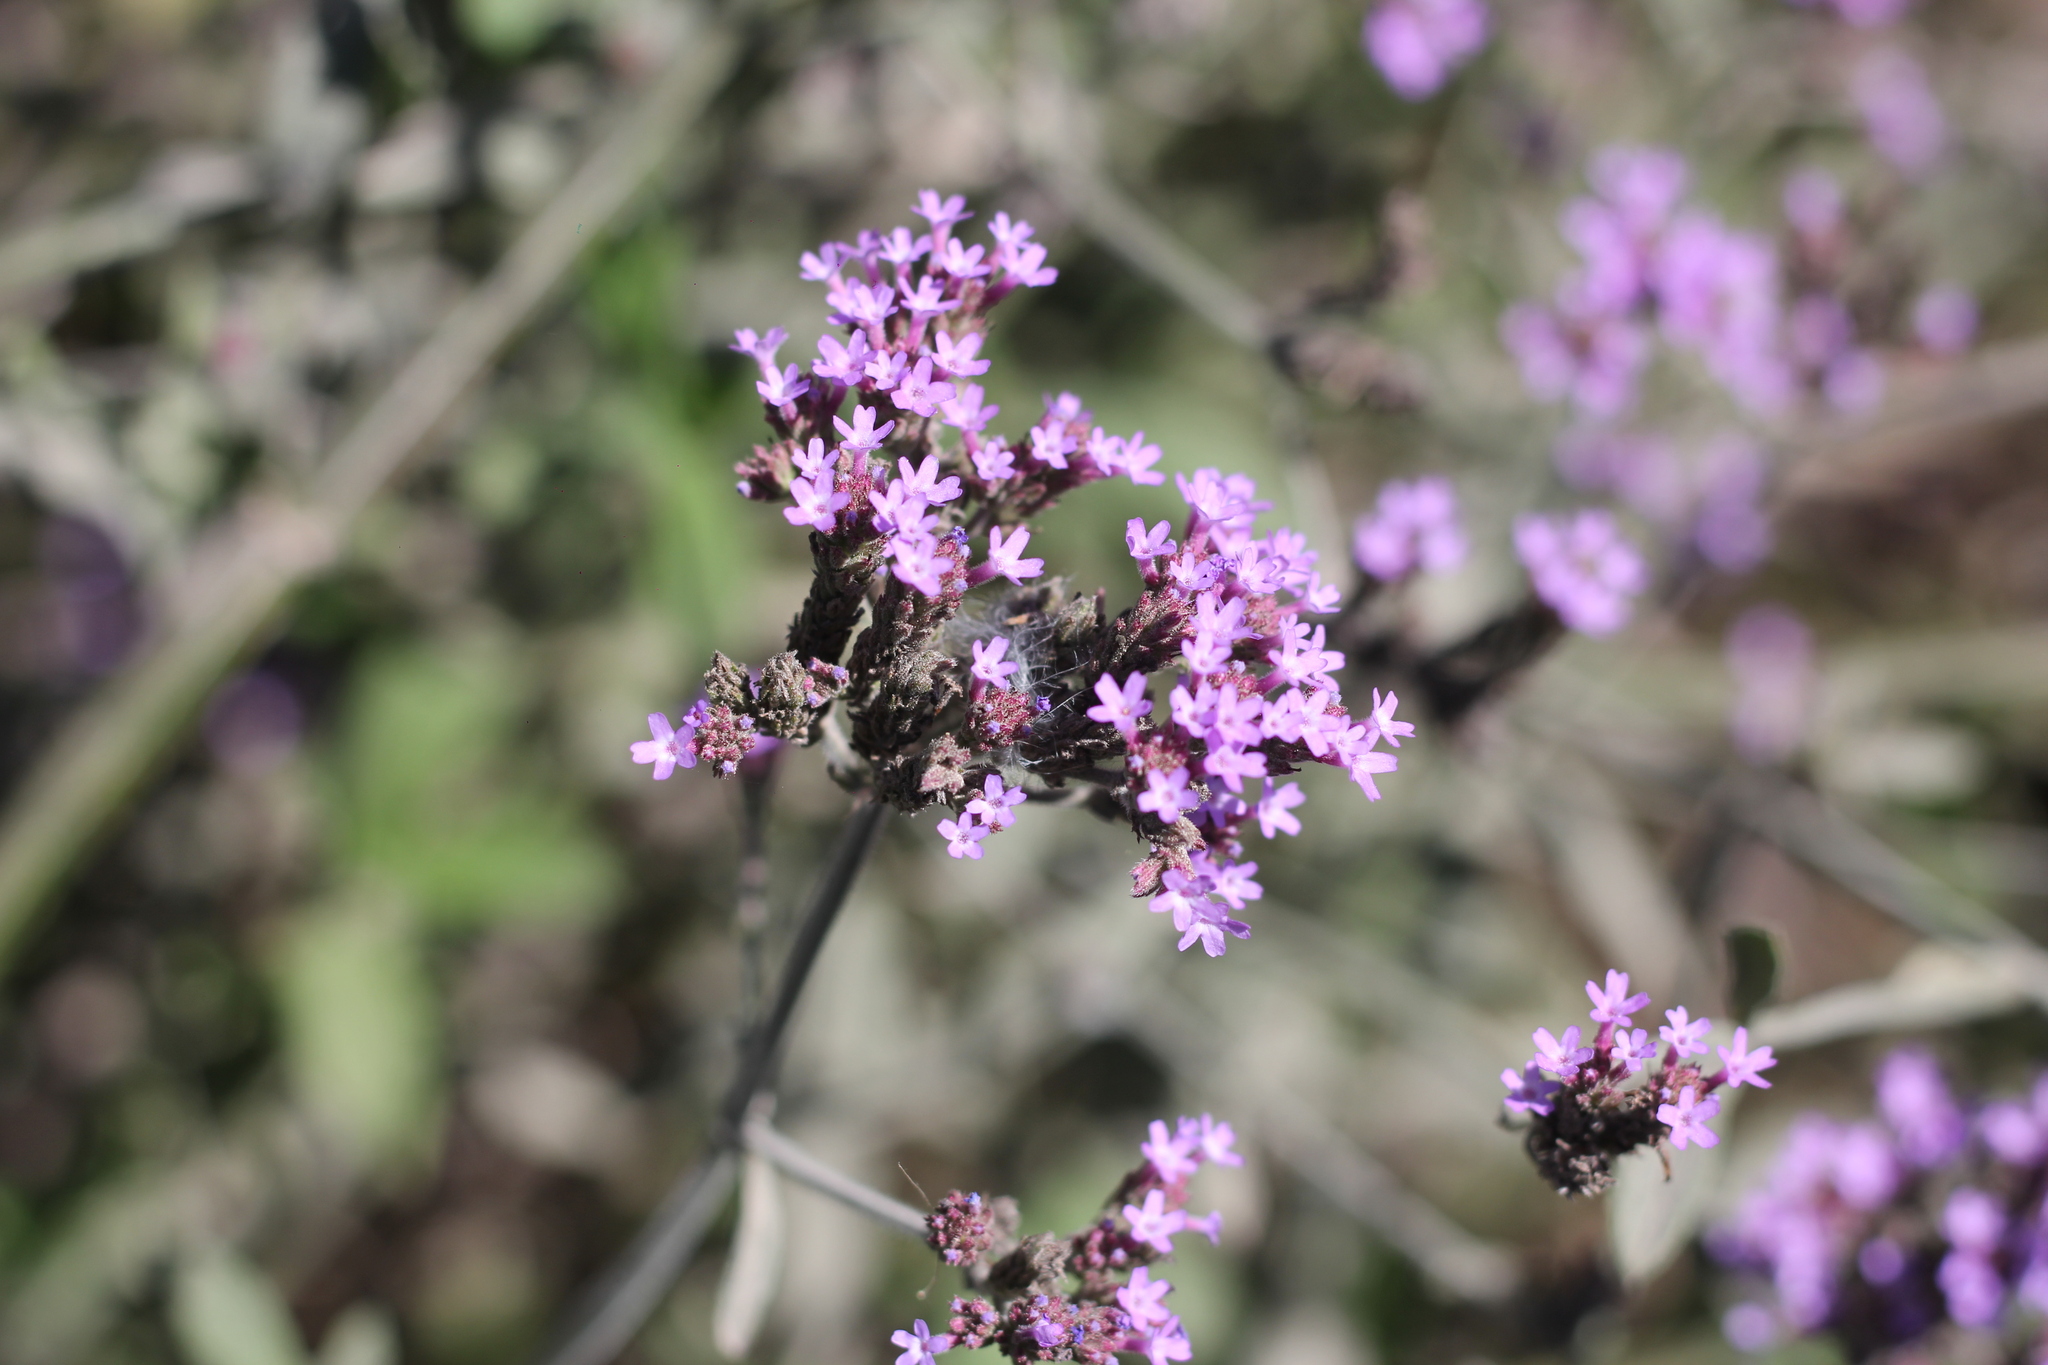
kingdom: Plantae
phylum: Tracheophyta
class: Magnoliopsida
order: Lamiales
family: Verbenaceae
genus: Verbena
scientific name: Verbena bonariensis
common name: Purpletop vervain
